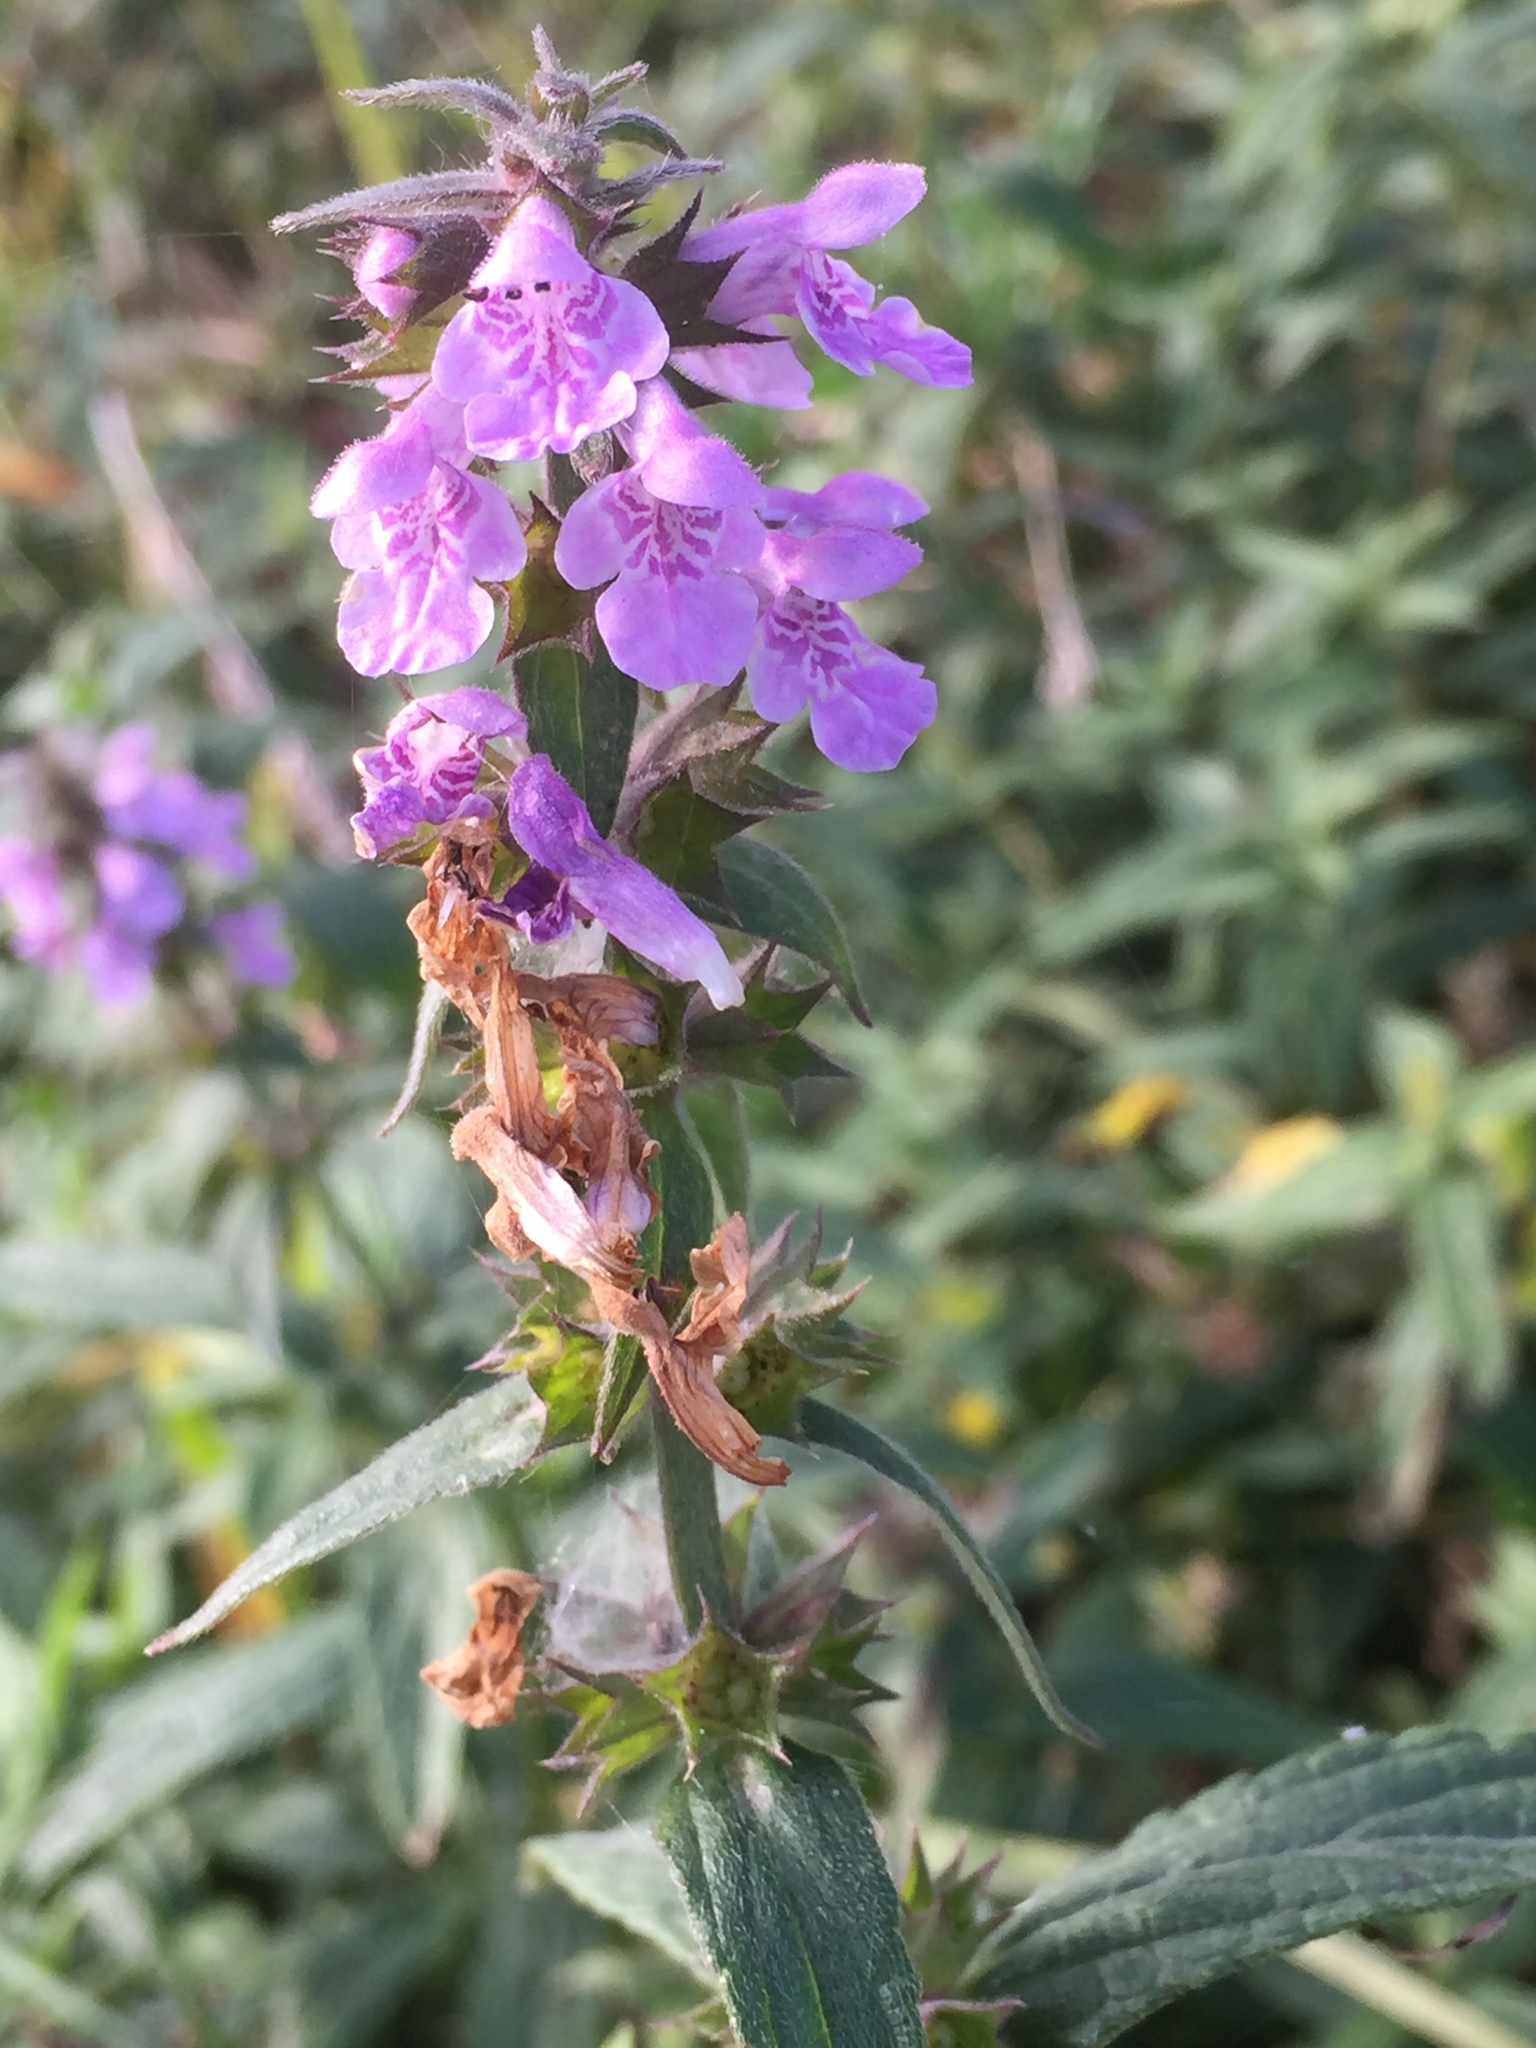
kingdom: Plantae
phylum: Tracheophyta
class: Magnoliopsida
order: Lamiales
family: Lamiaceae
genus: Stachys
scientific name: Stachys palustris
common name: Marsh woundwort
